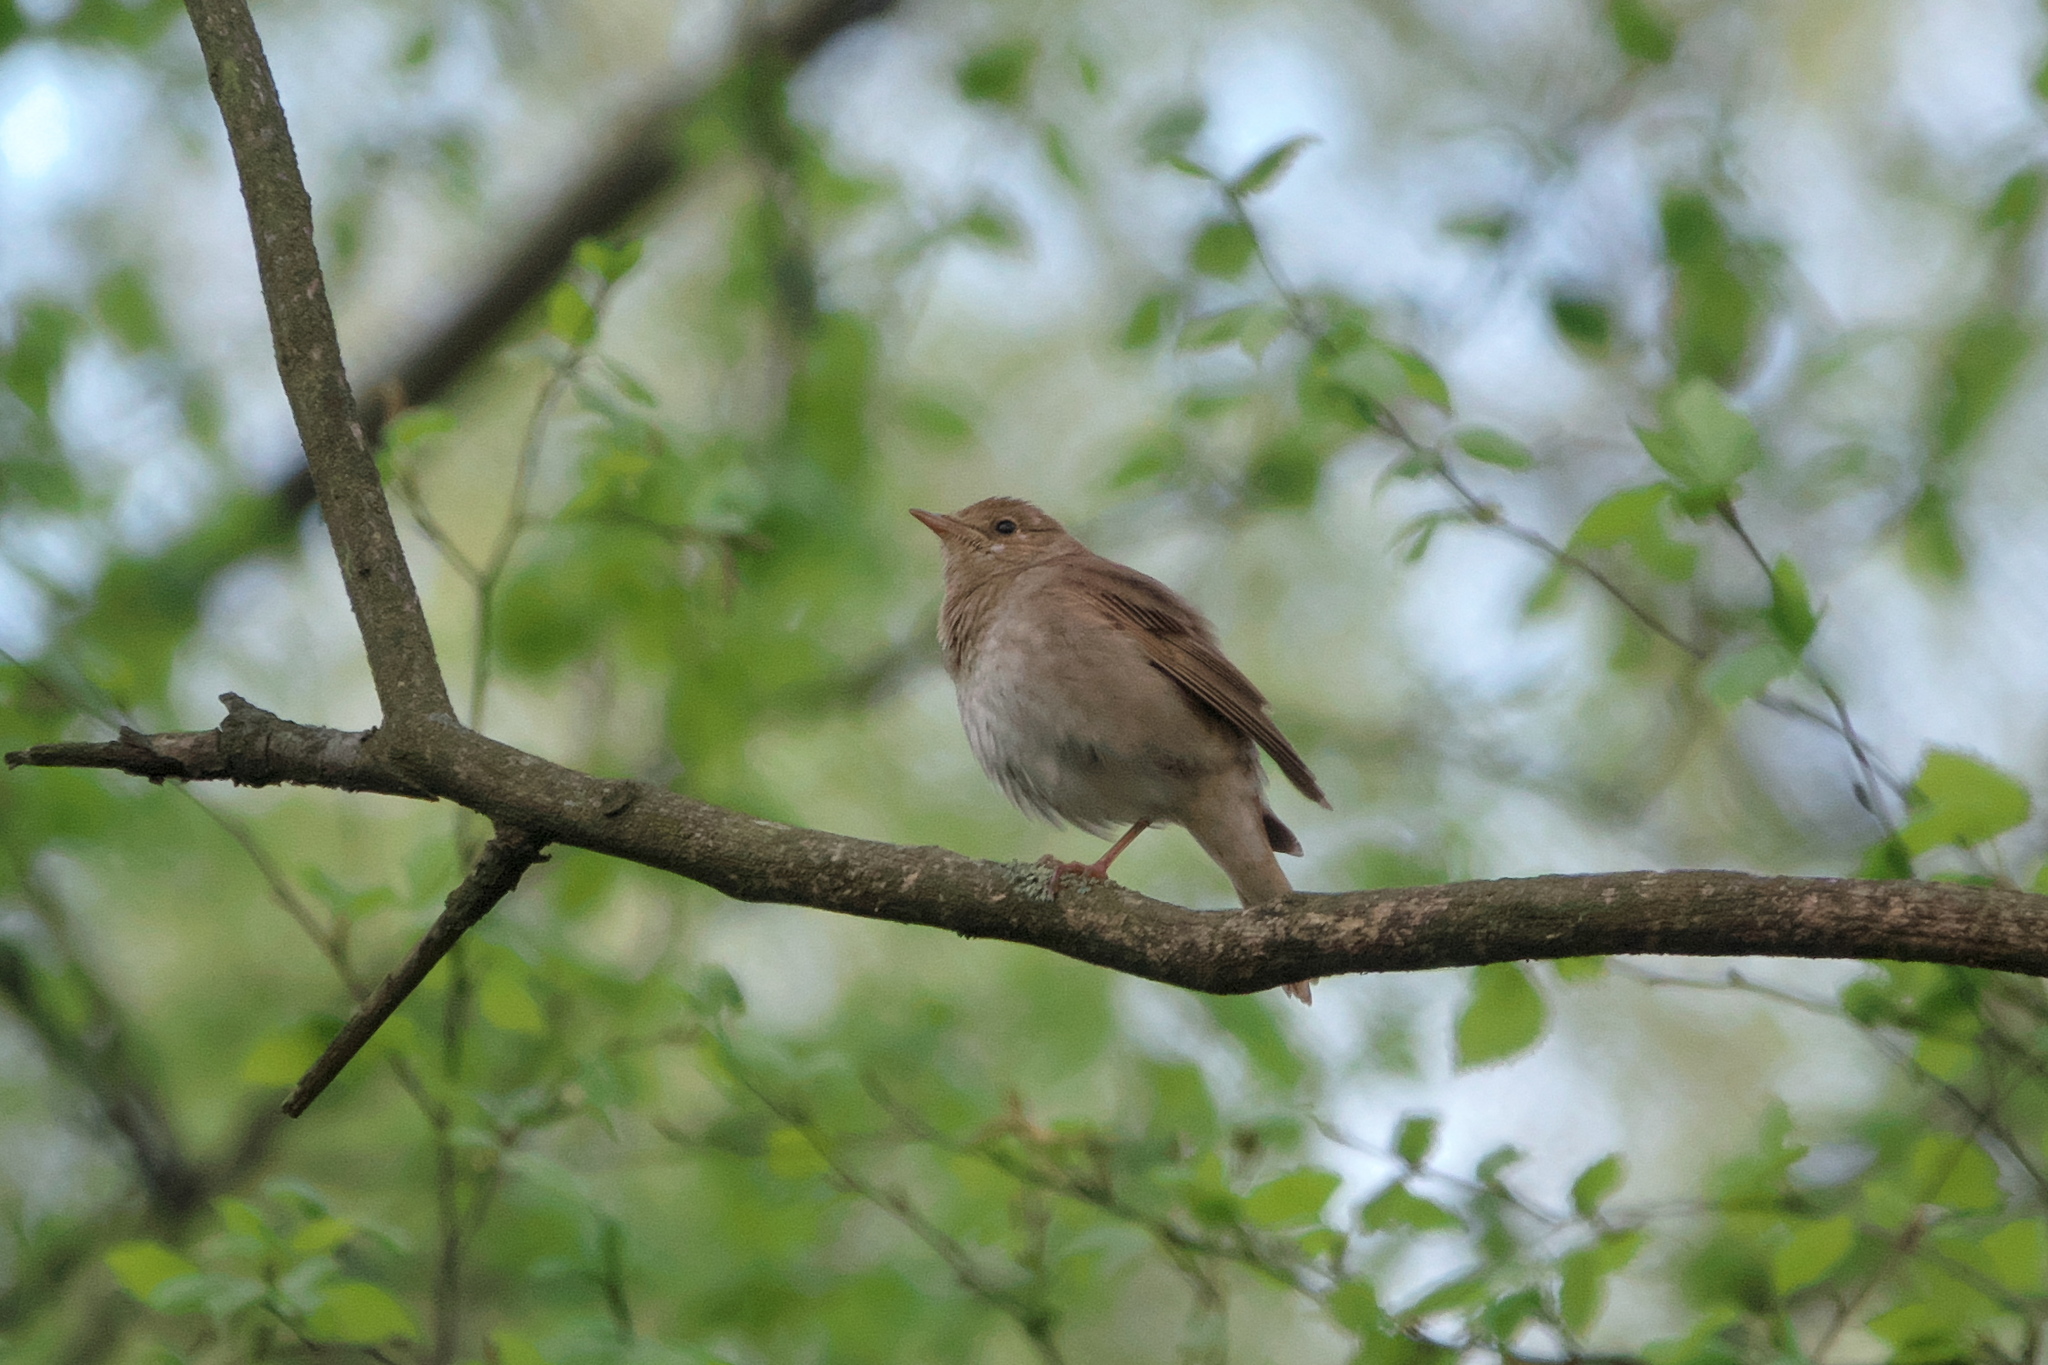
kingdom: Animalia
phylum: Chordata
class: Aves
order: Passeriformes
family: Muscicapidae
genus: Luscinia
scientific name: Luscinia luscinia
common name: Thrush nightingale
